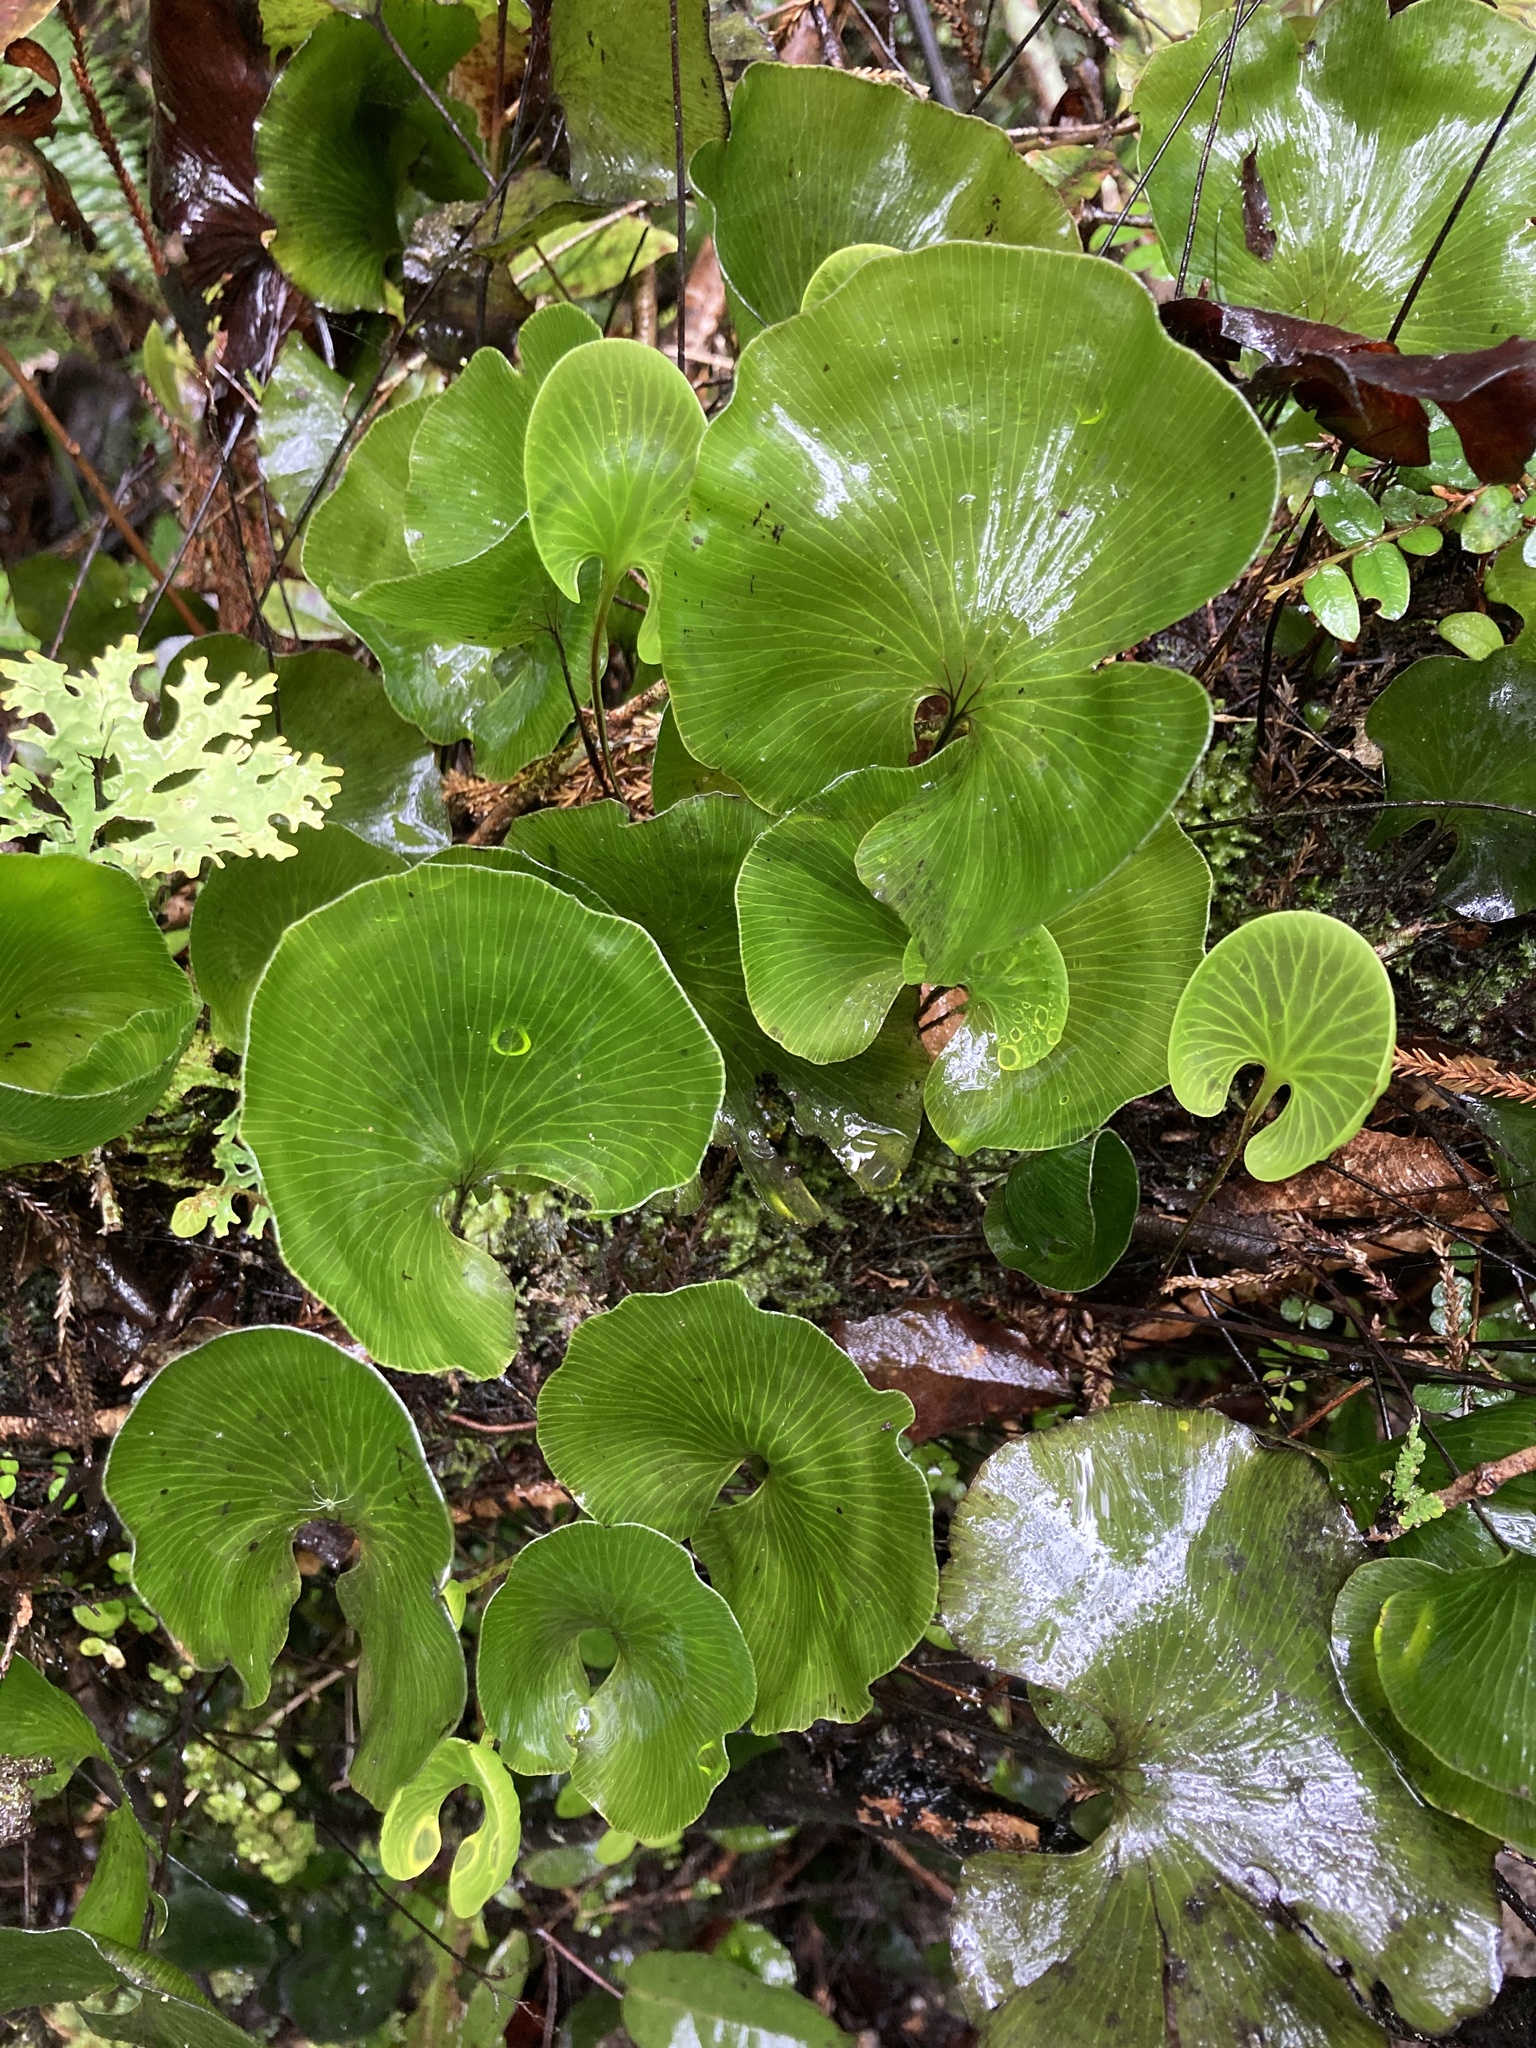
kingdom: Plantae
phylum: Tracheophyta
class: Polypodiopsida
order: Hymenophyllales
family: Hymenophyllaceae
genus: Hymenophyllum
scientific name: Hymenophyllum nephrophyllum
